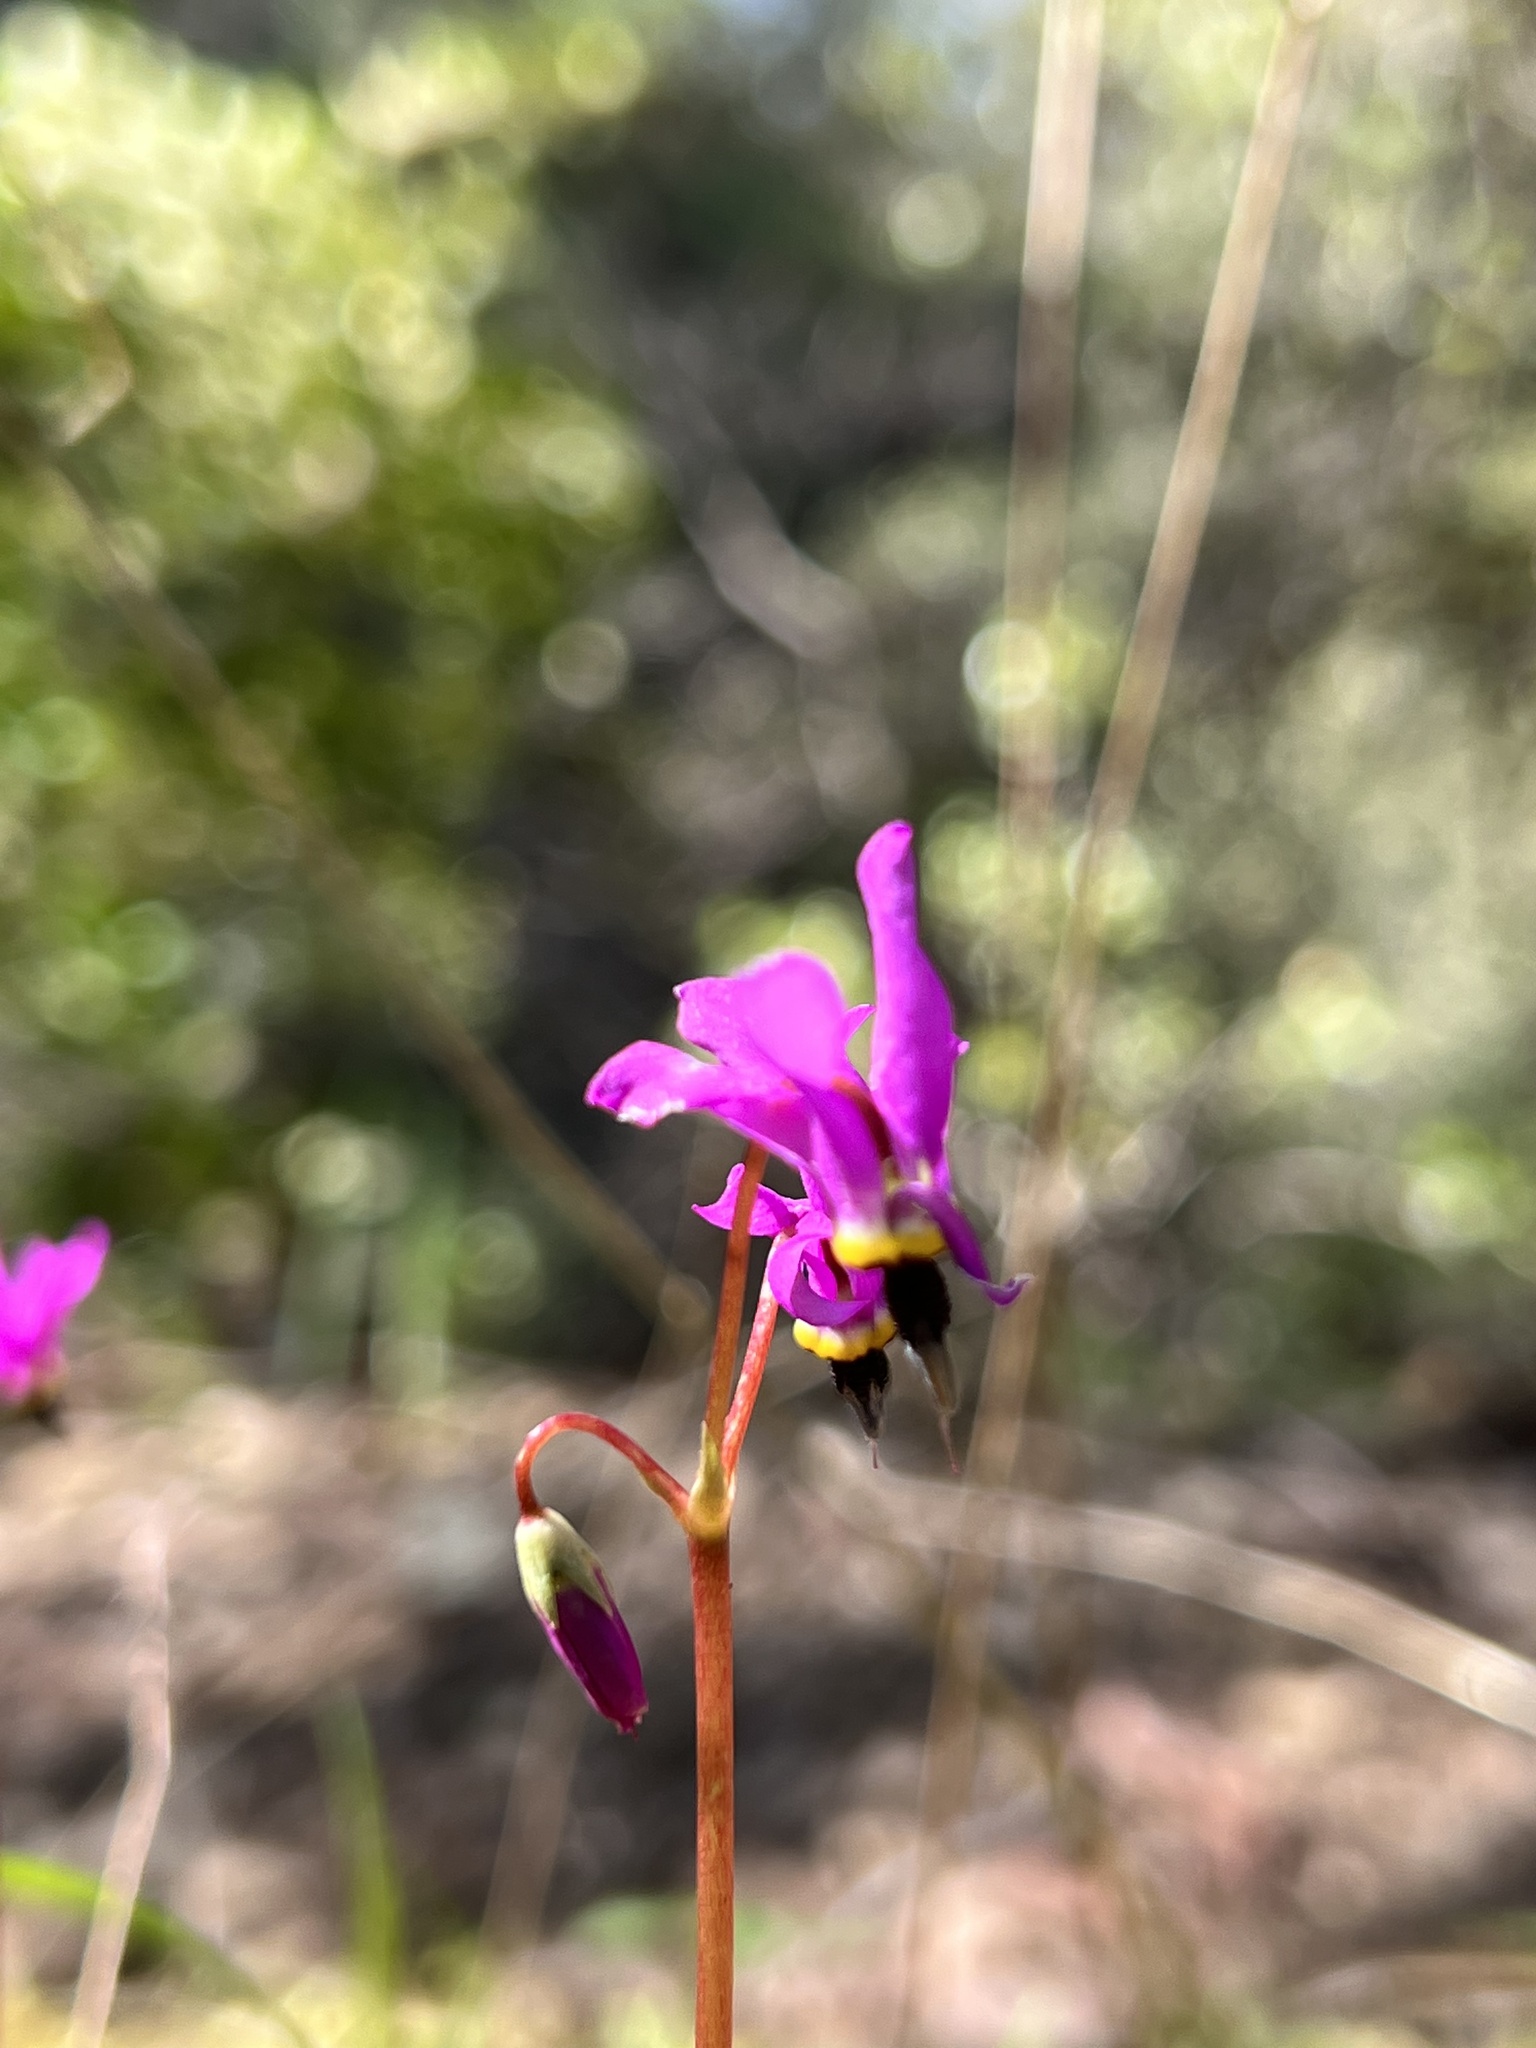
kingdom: Plantae
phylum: Tracheophyta
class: Magnoliopsida
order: Ericales
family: Primulaceae
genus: Dodecatheon
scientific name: Dodecatheon hendersonii
